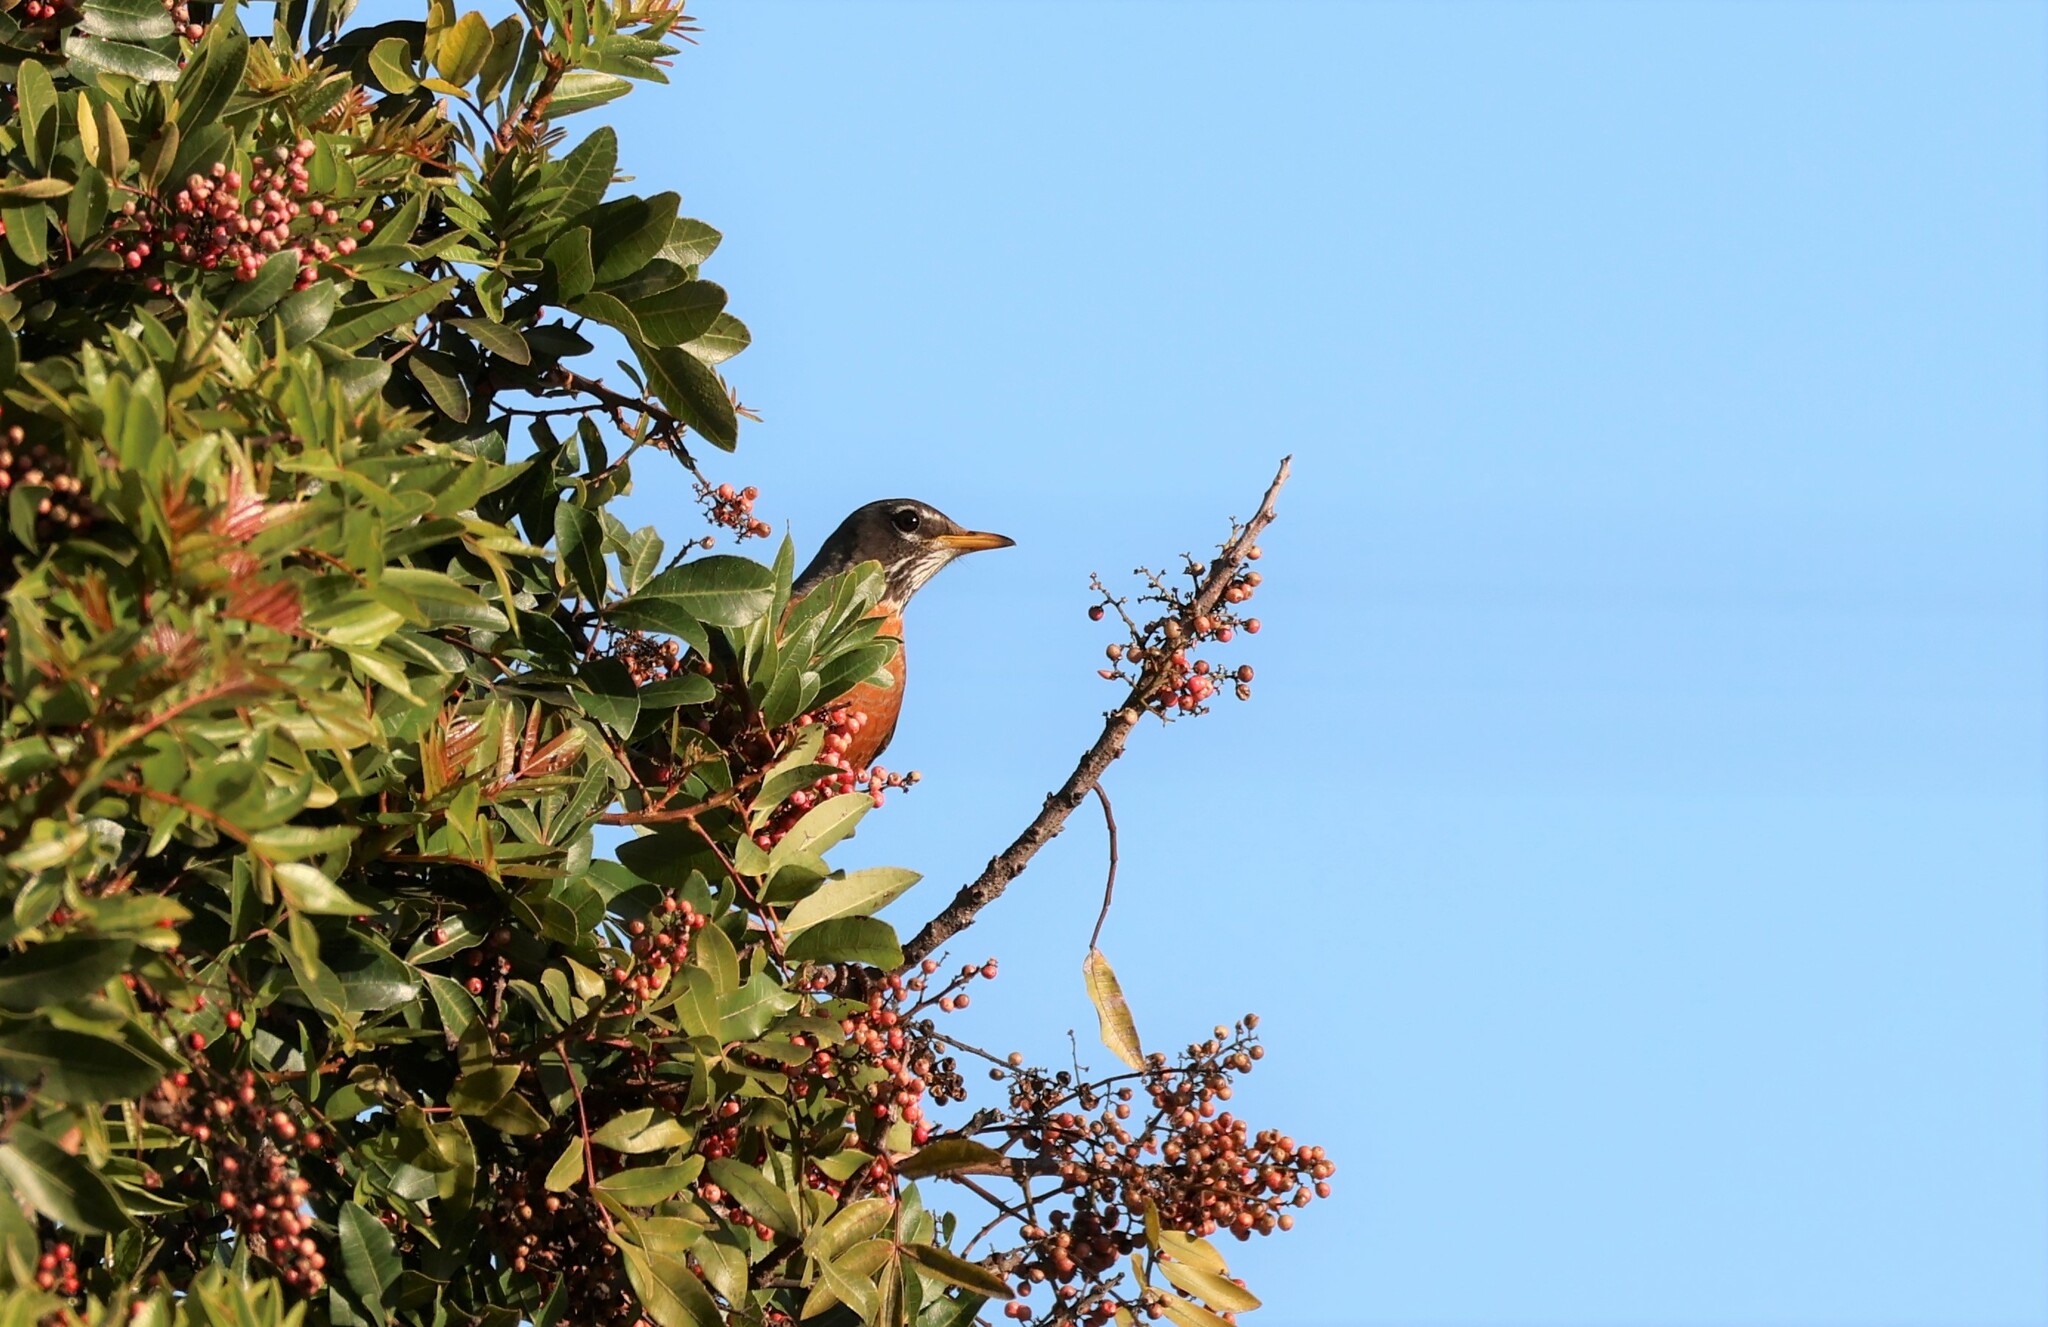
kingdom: Animalia
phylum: Chordata
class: Aves
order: Passeriformes
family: Turdidae
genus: Turdus
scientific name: Turdus migratorius
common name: American robin
